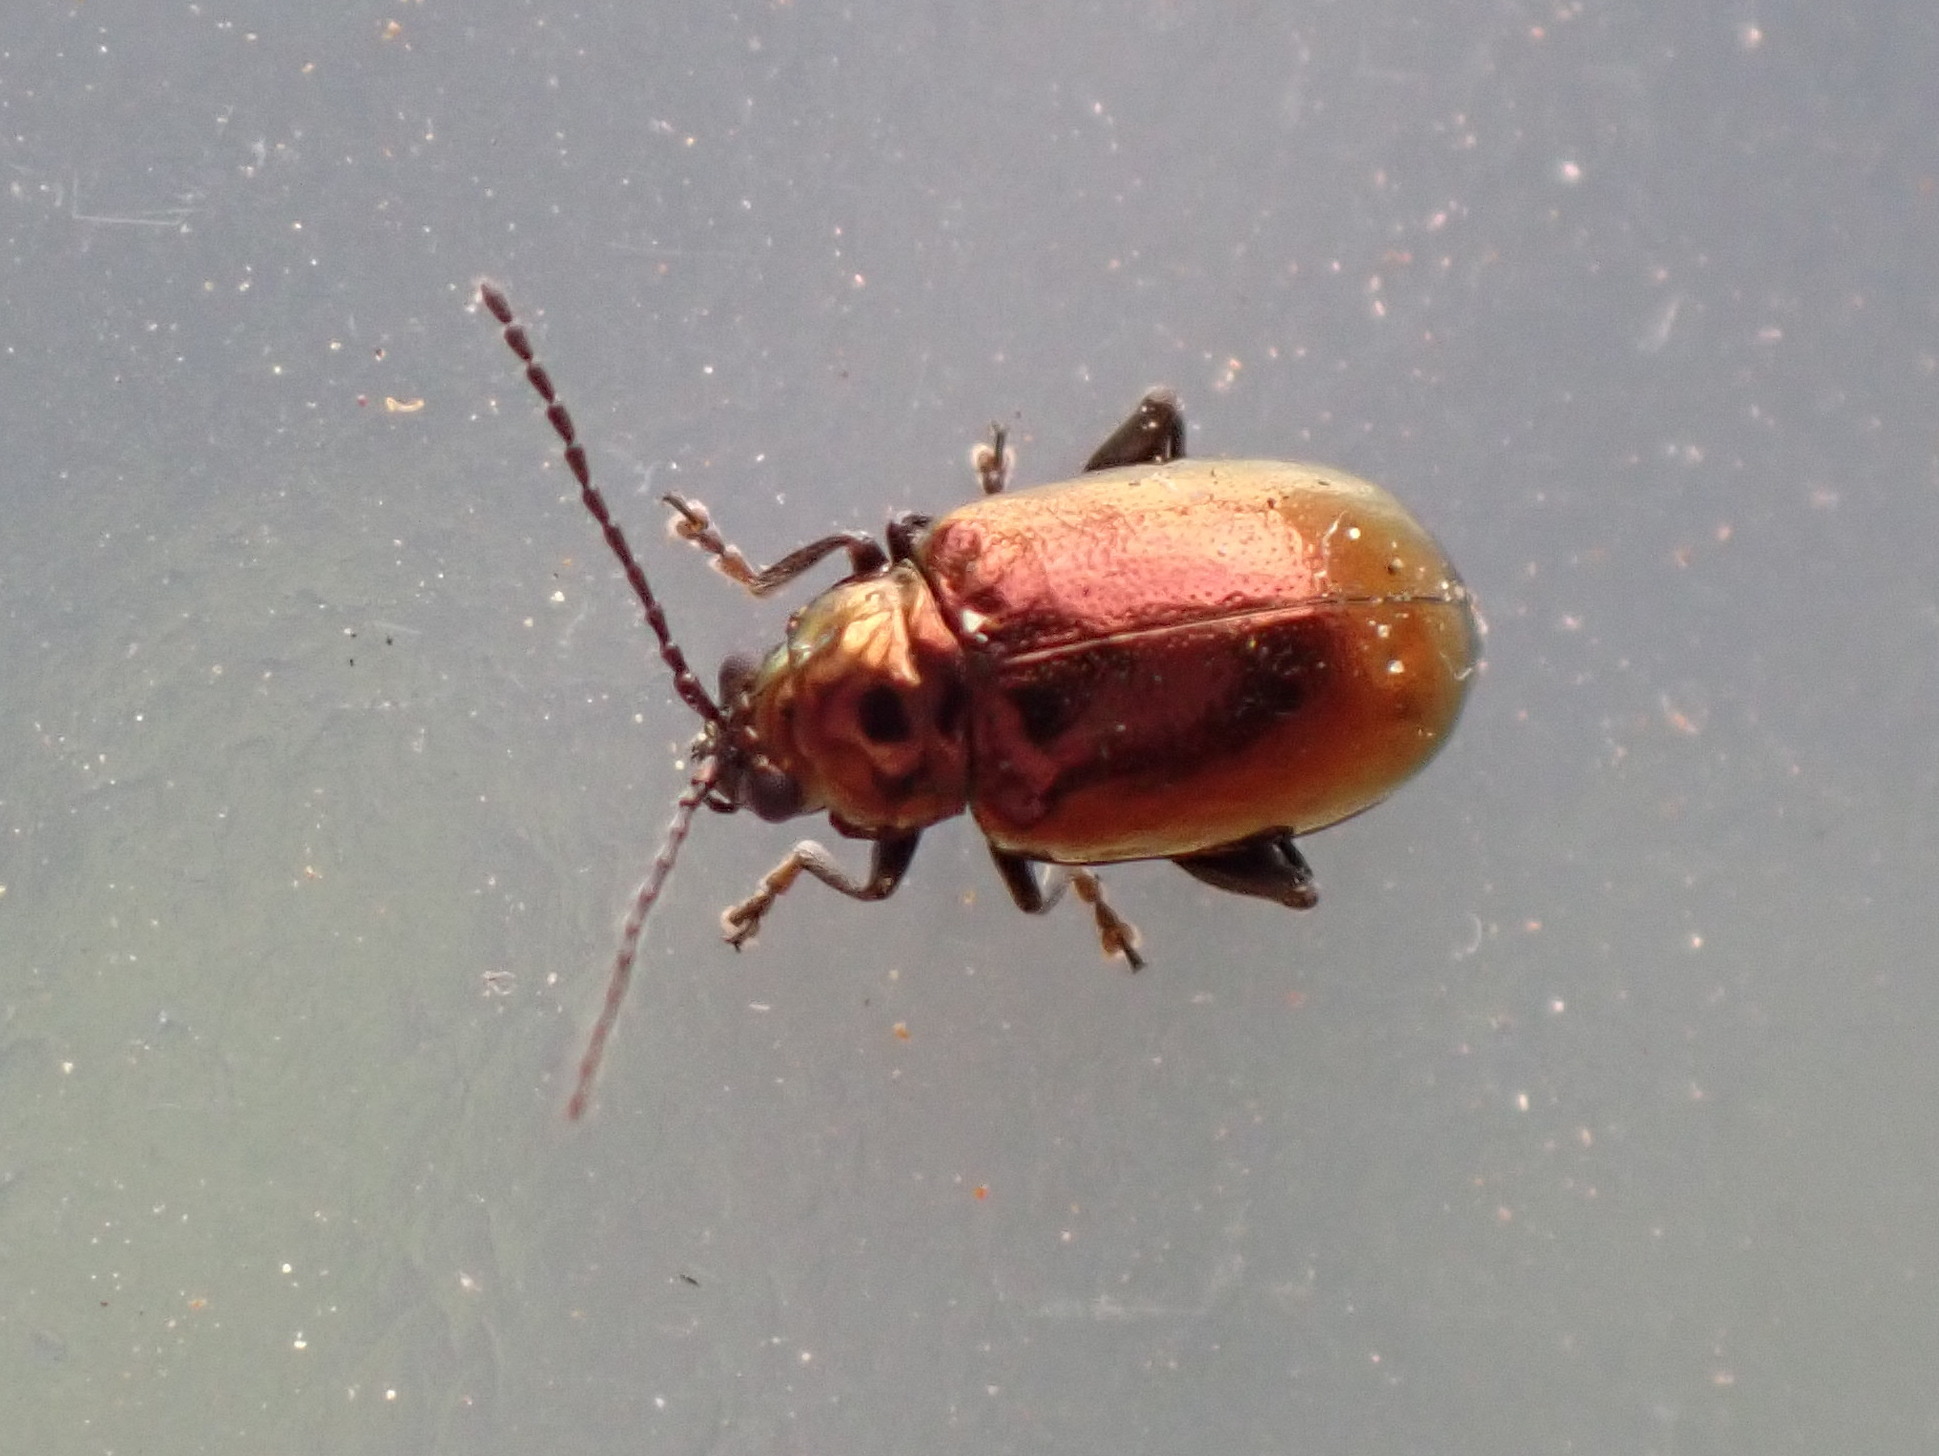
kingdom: Animalia
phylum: Arthropoda
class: Insecta
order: Coleoptera
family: Chrysomelidae
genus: Altica
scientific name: Altica kalmiae
